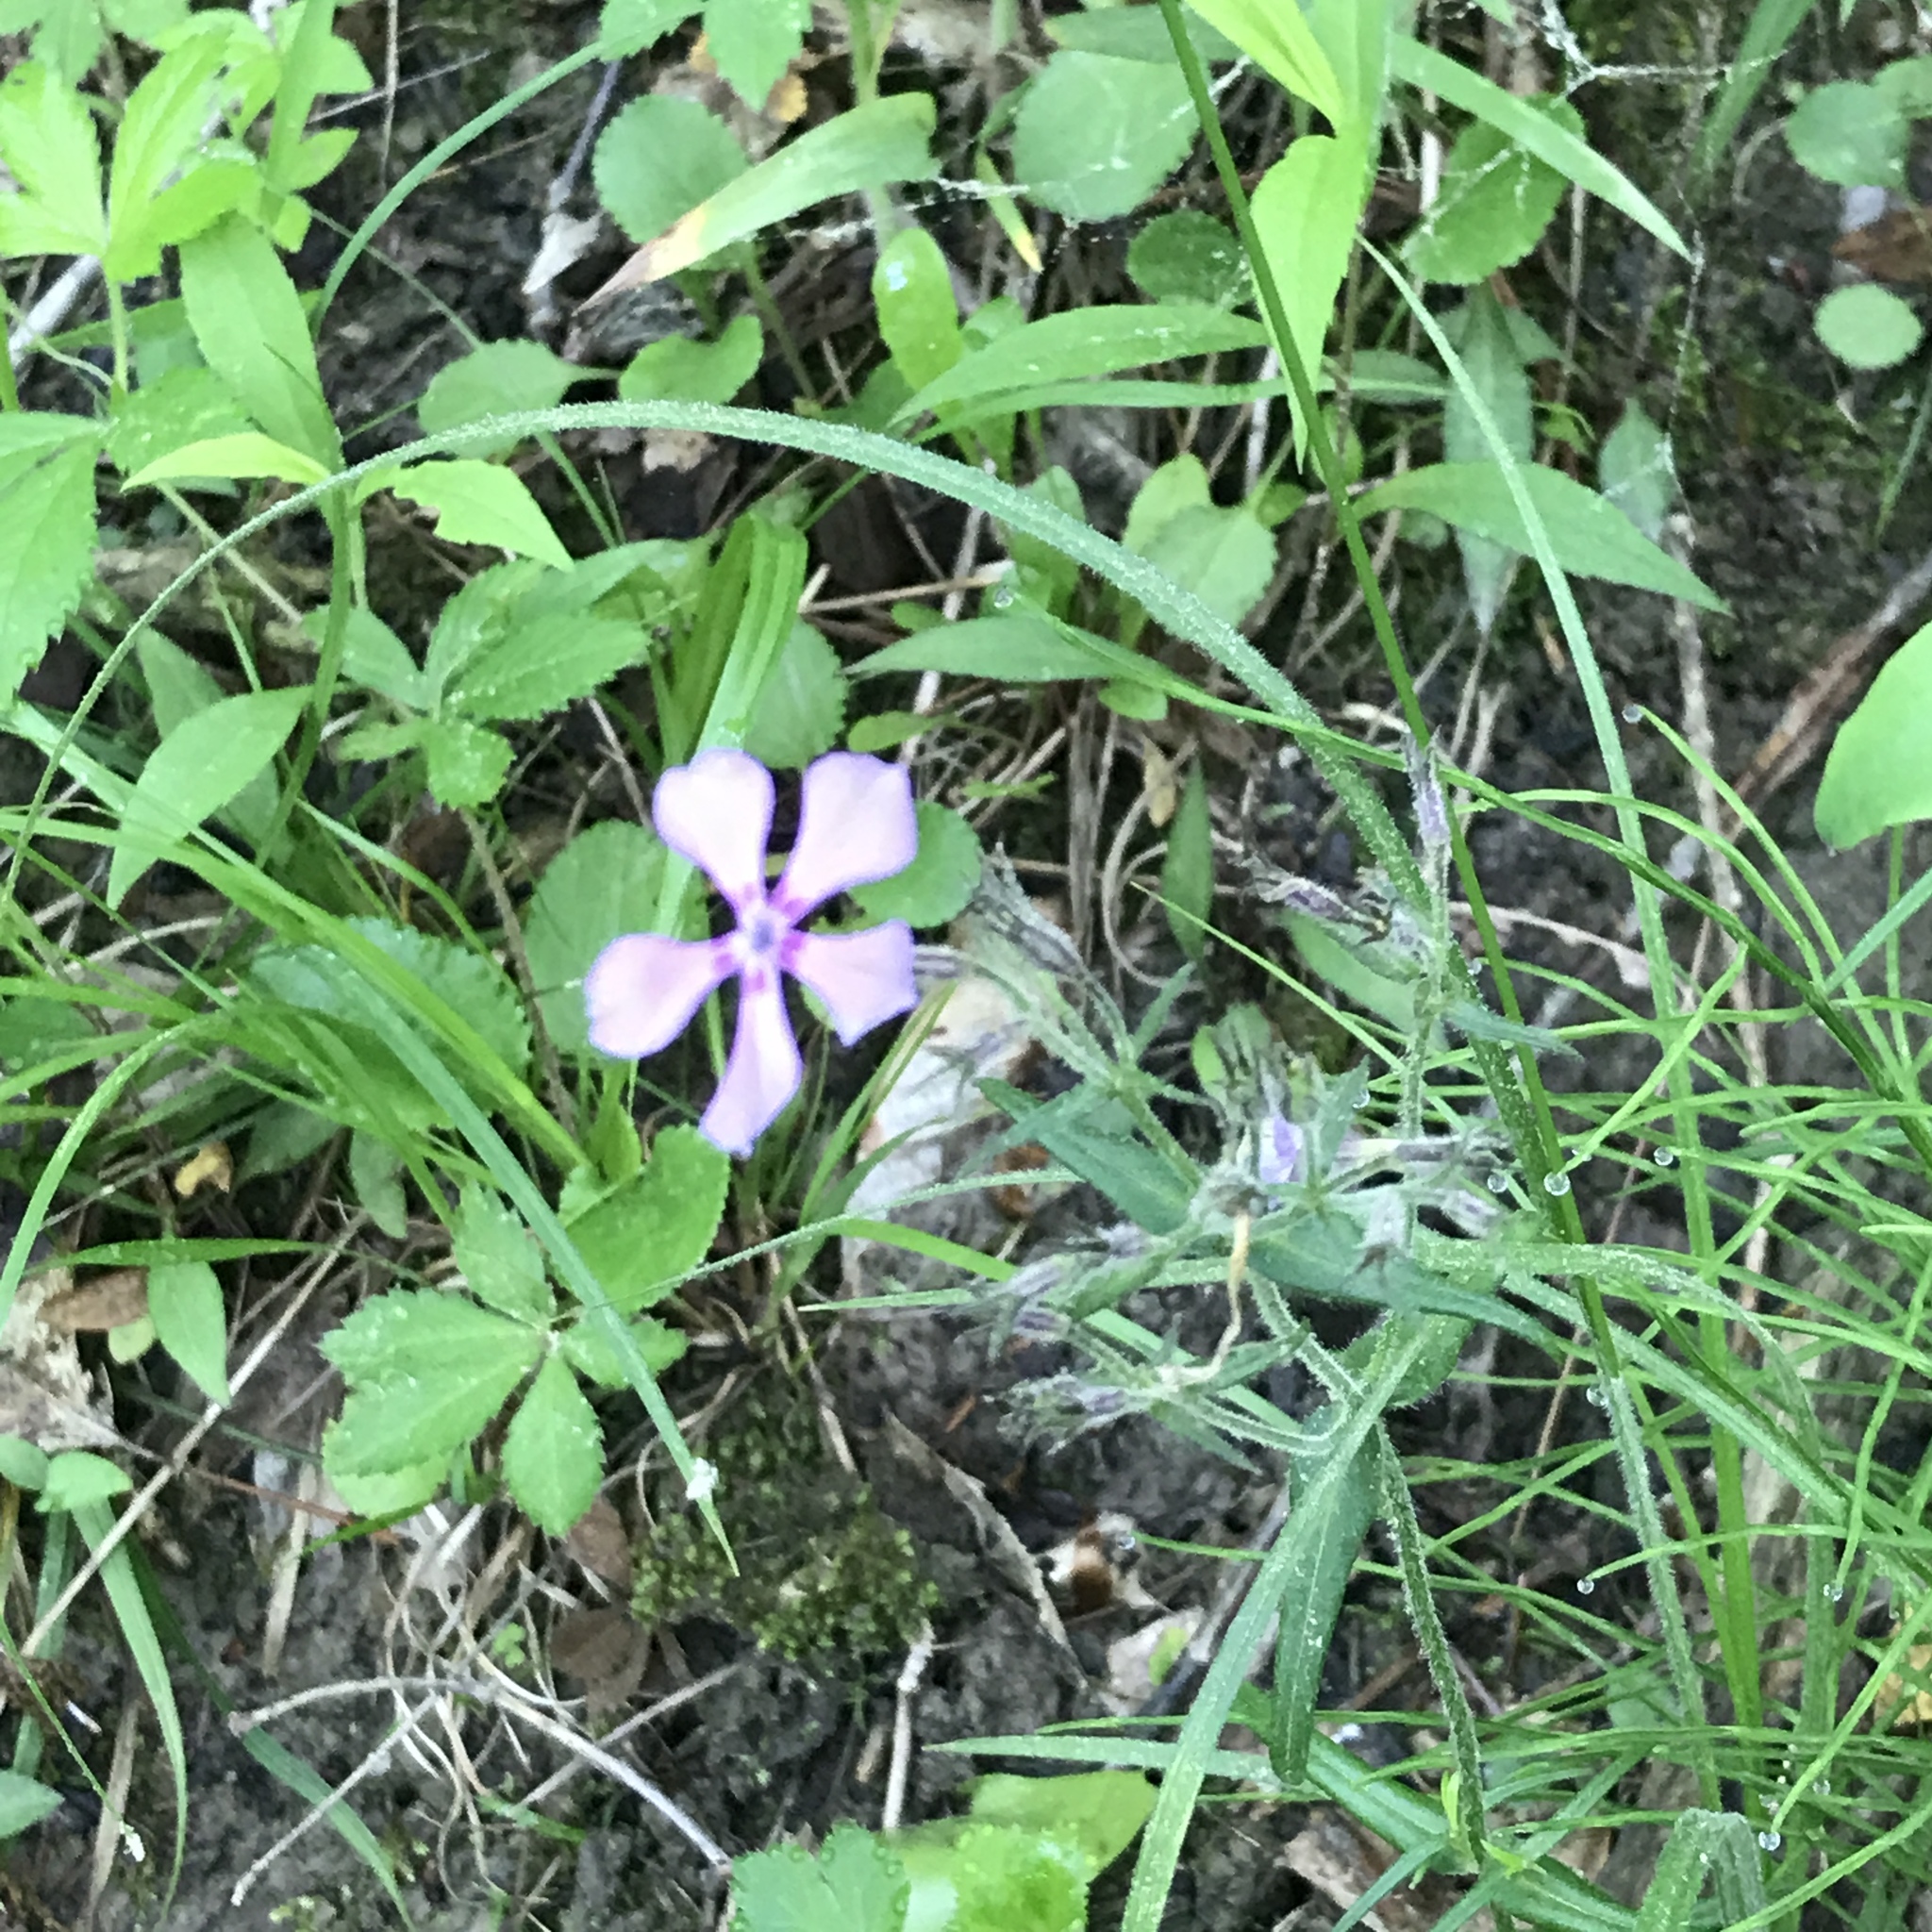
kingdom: Plantae
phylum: Tracheophyta
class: Magnoliopsida
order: Ericales
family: Polemoniaceae
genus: Phlox
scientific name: Phlox pilosa
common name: Prairie phlox
